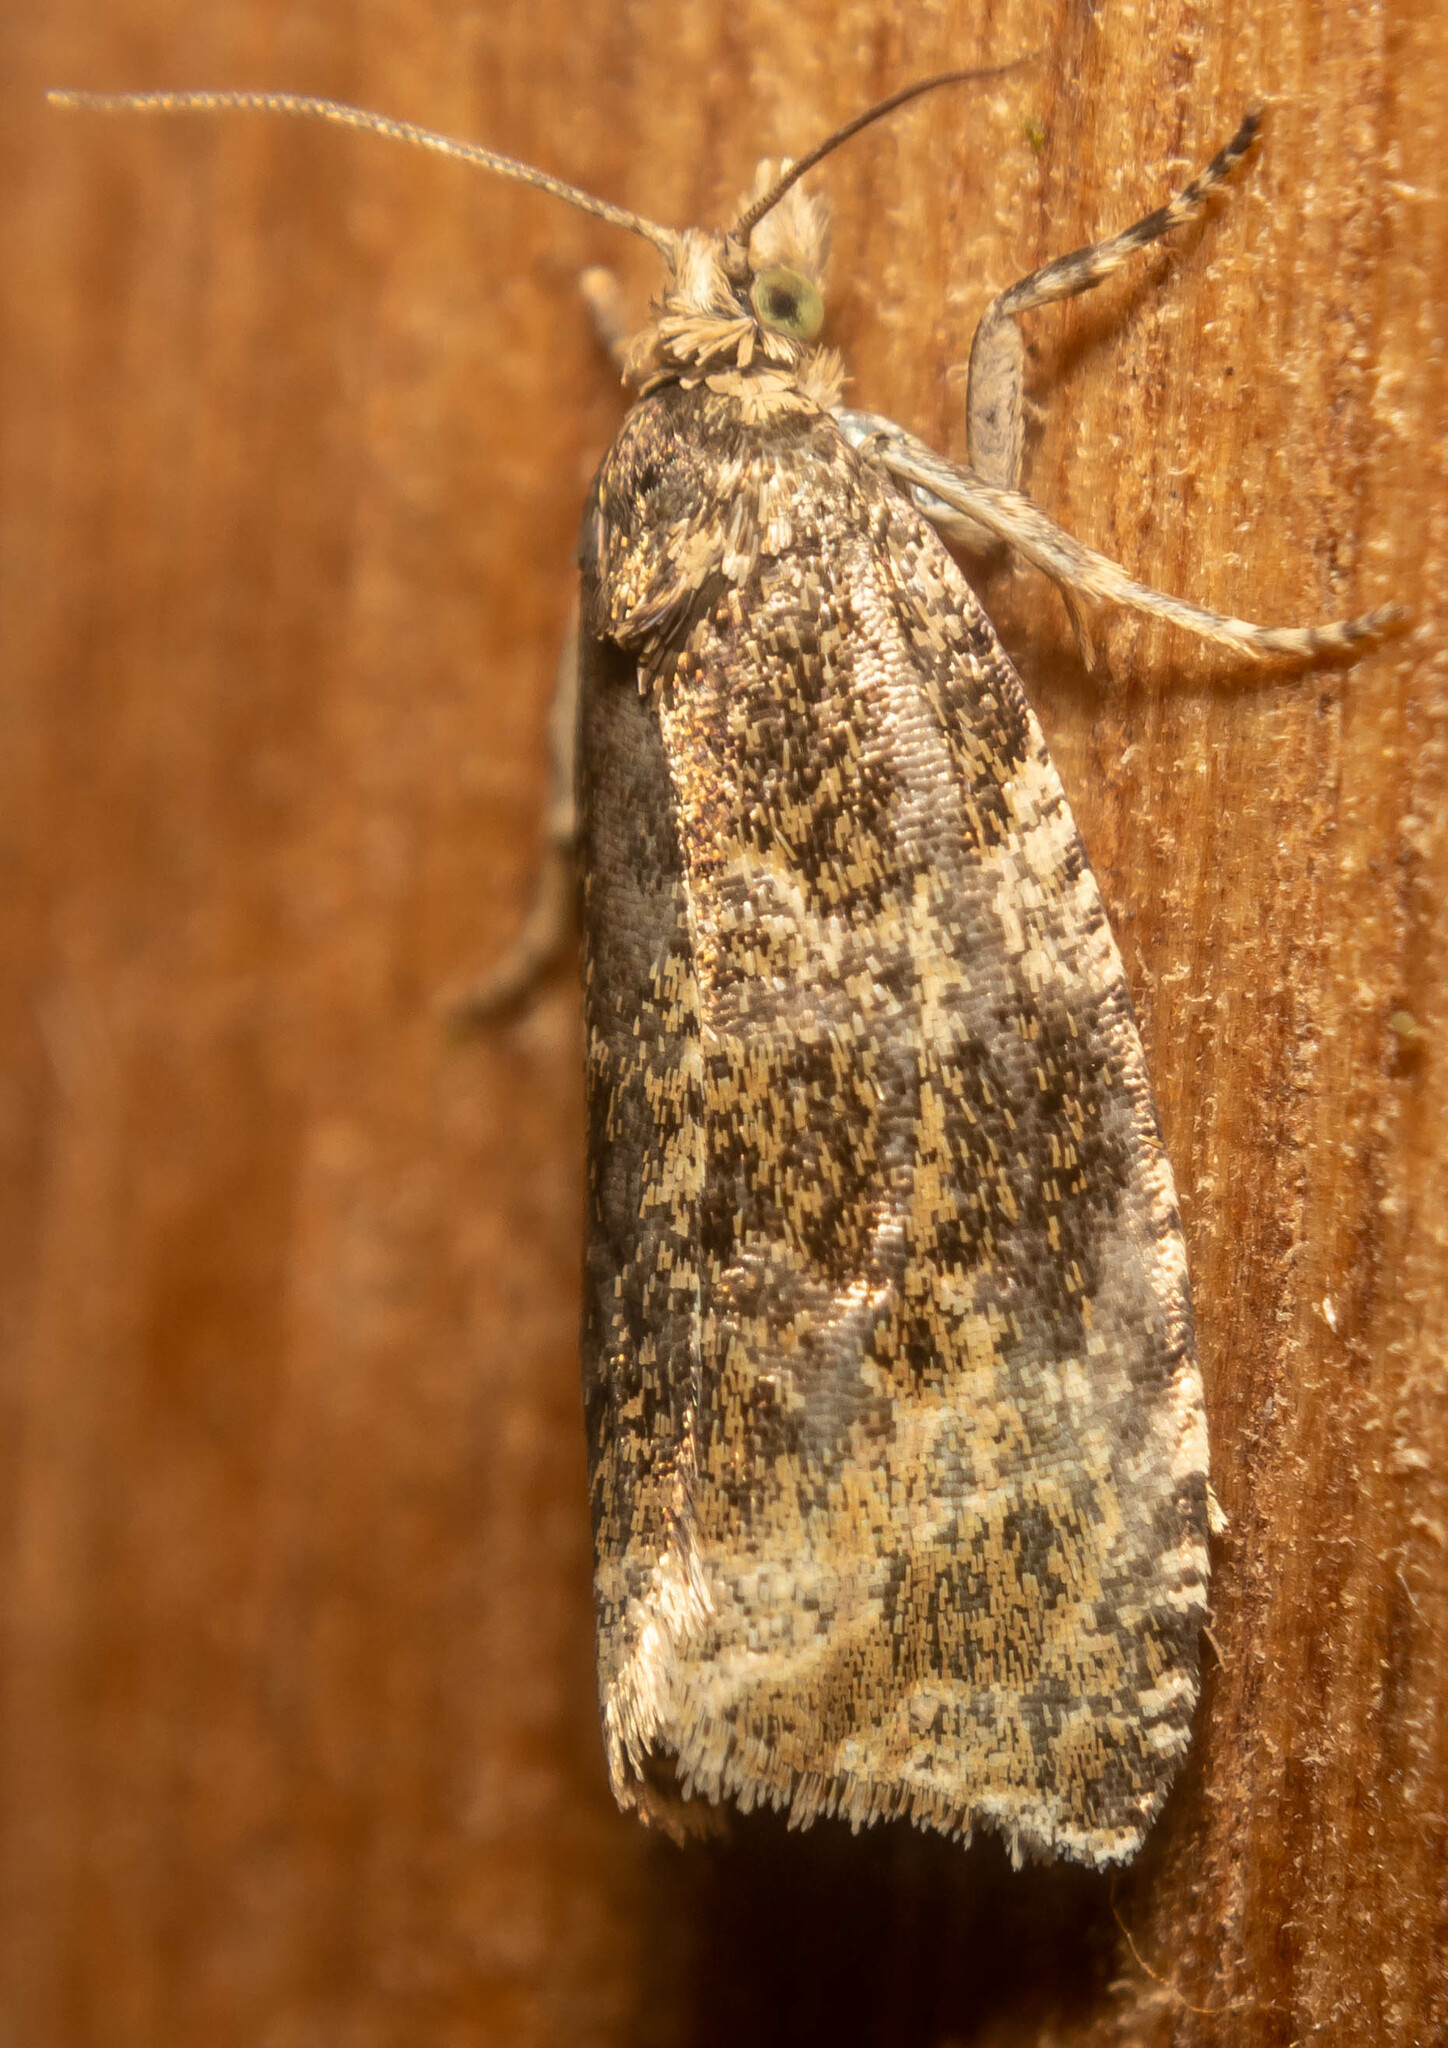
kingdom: Animalia
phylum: Arthropoda
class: Insecta
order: Lepidoptera
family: Tortricidae
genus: Syricoris
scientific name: Syricoris lacunana
